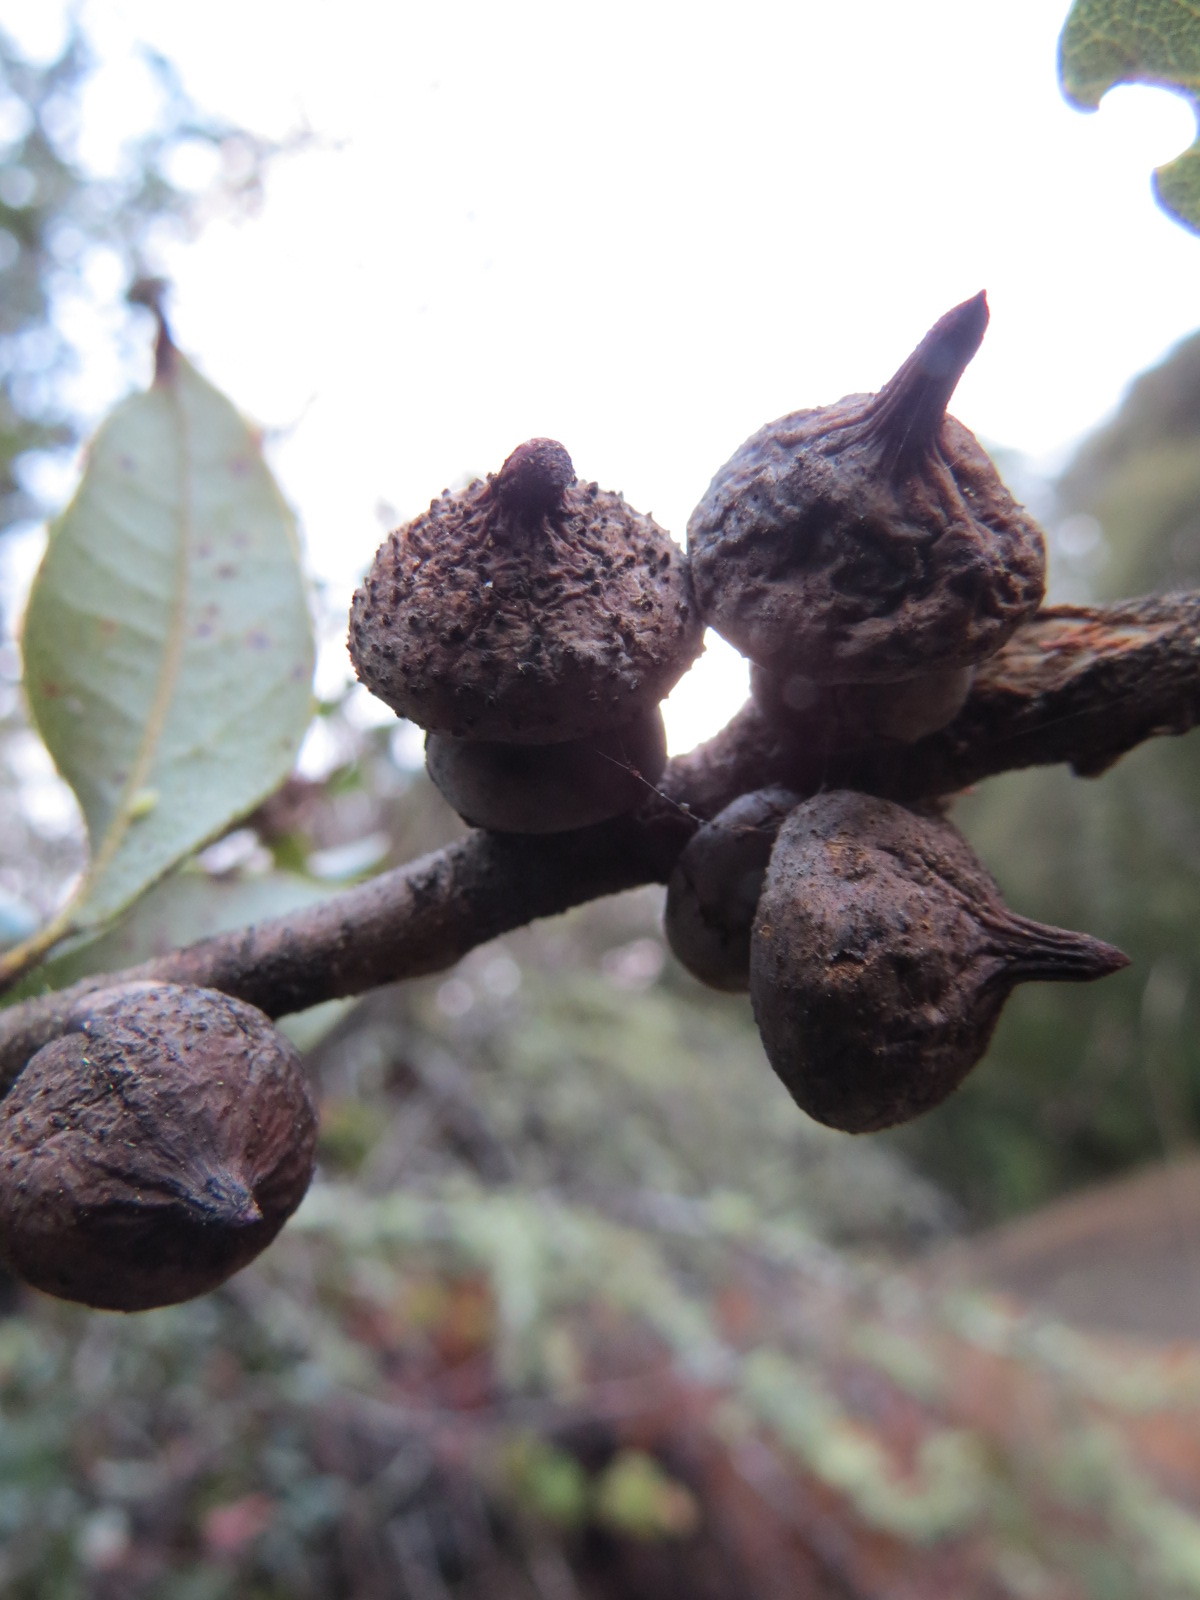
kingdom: Animalia
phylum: Arthropoda
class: Insecta
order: Hymenoptera
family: Cynipidae
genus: Heteroecus
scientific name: Heteroecus
